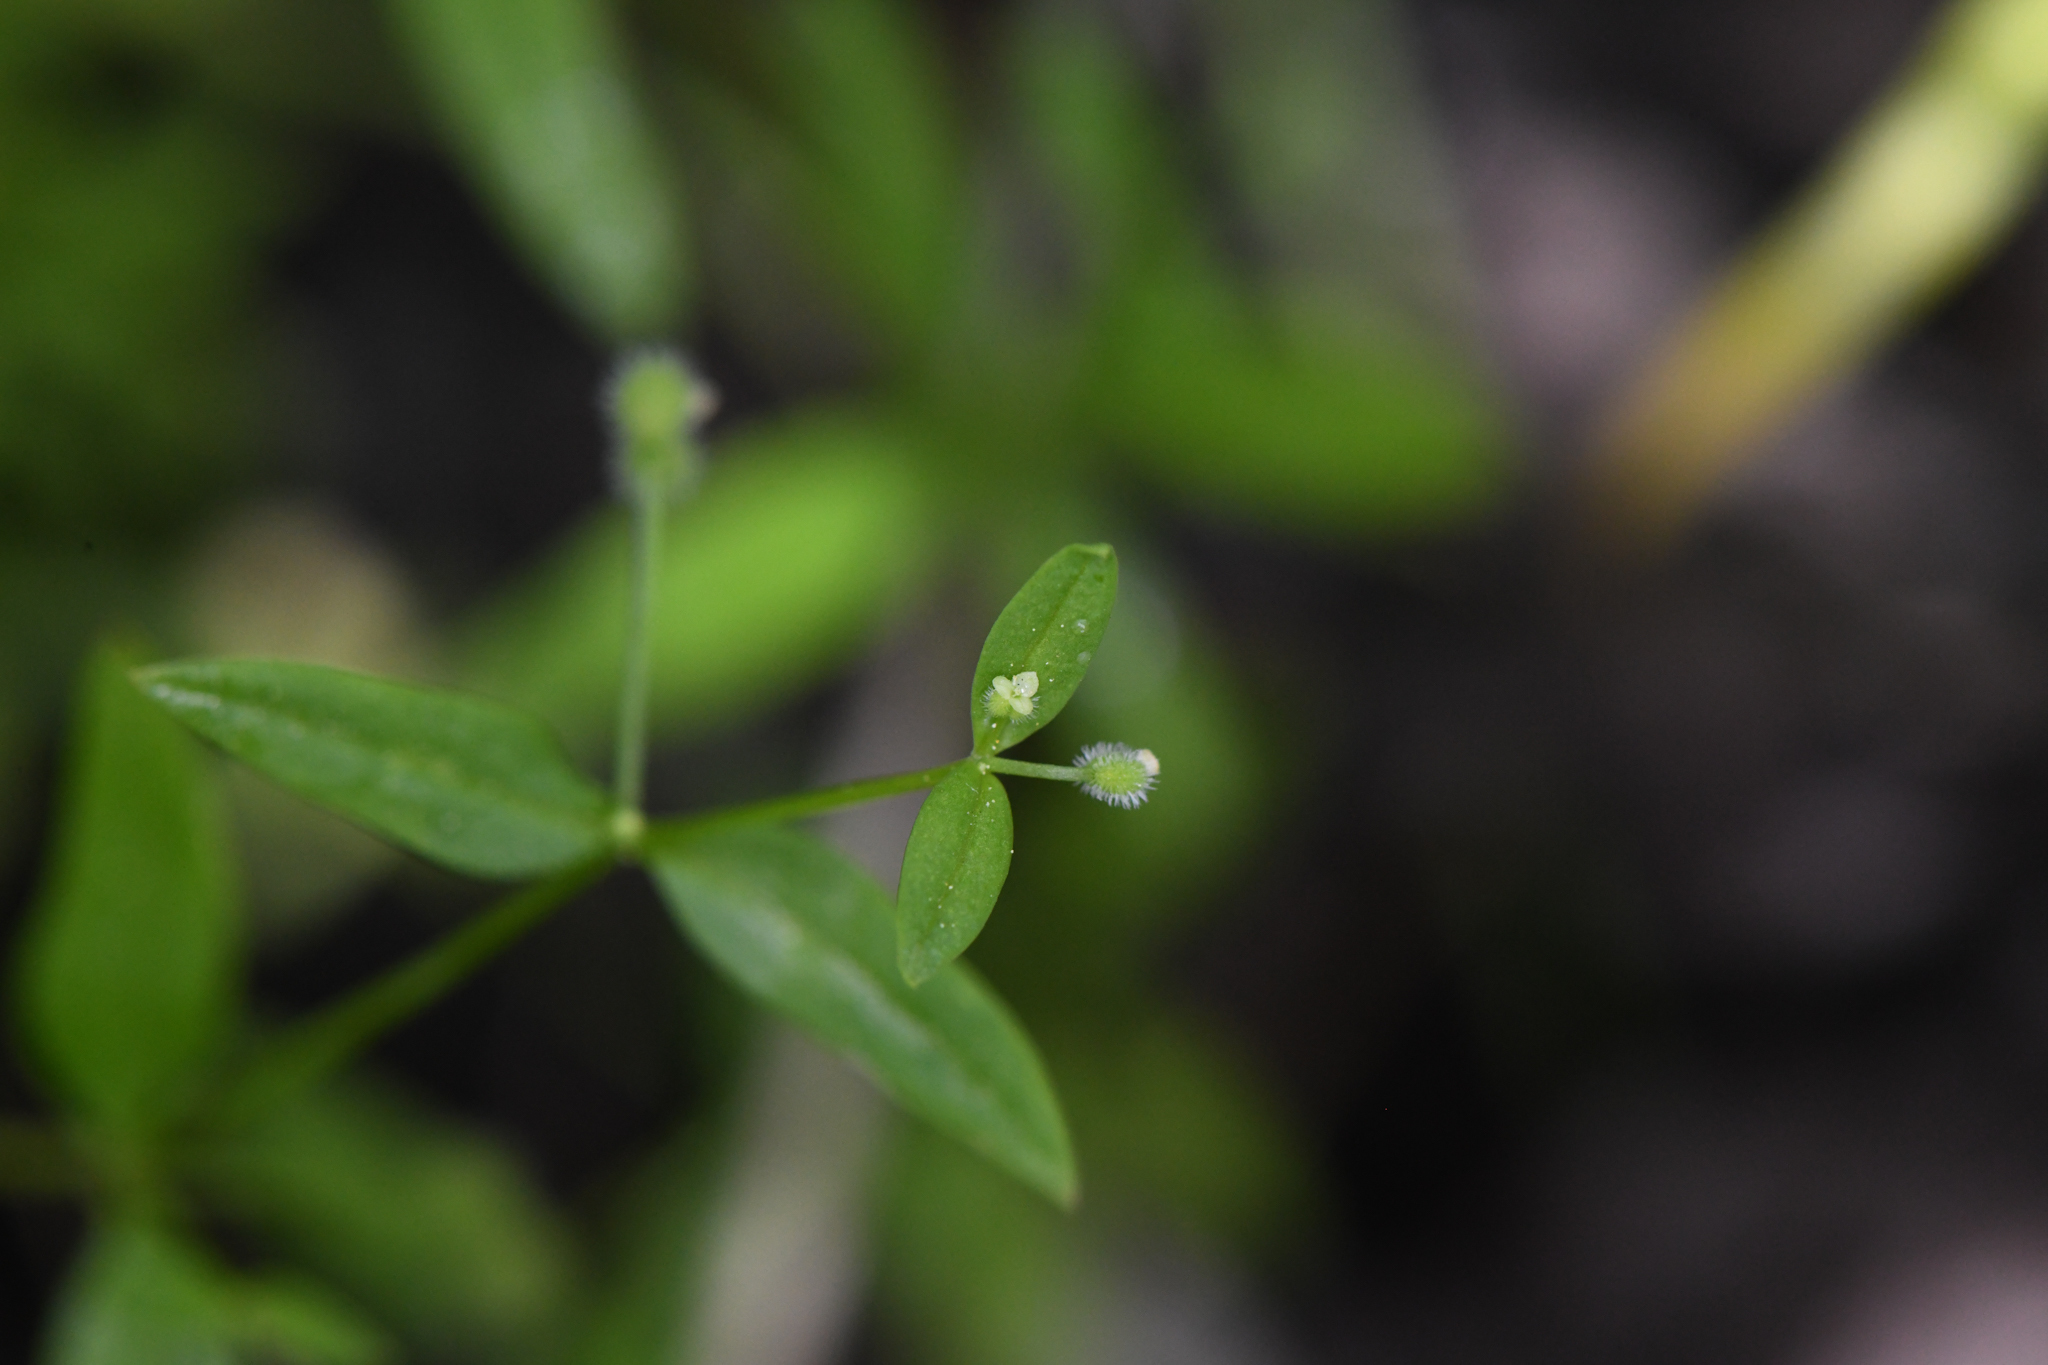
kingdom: Plantae
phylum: Tracheophyta
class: Magnoliopsida
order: Gentianales
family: Rubiaceae
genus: Galium
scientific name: Galium bifolium
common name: Low mountain bedstraw
